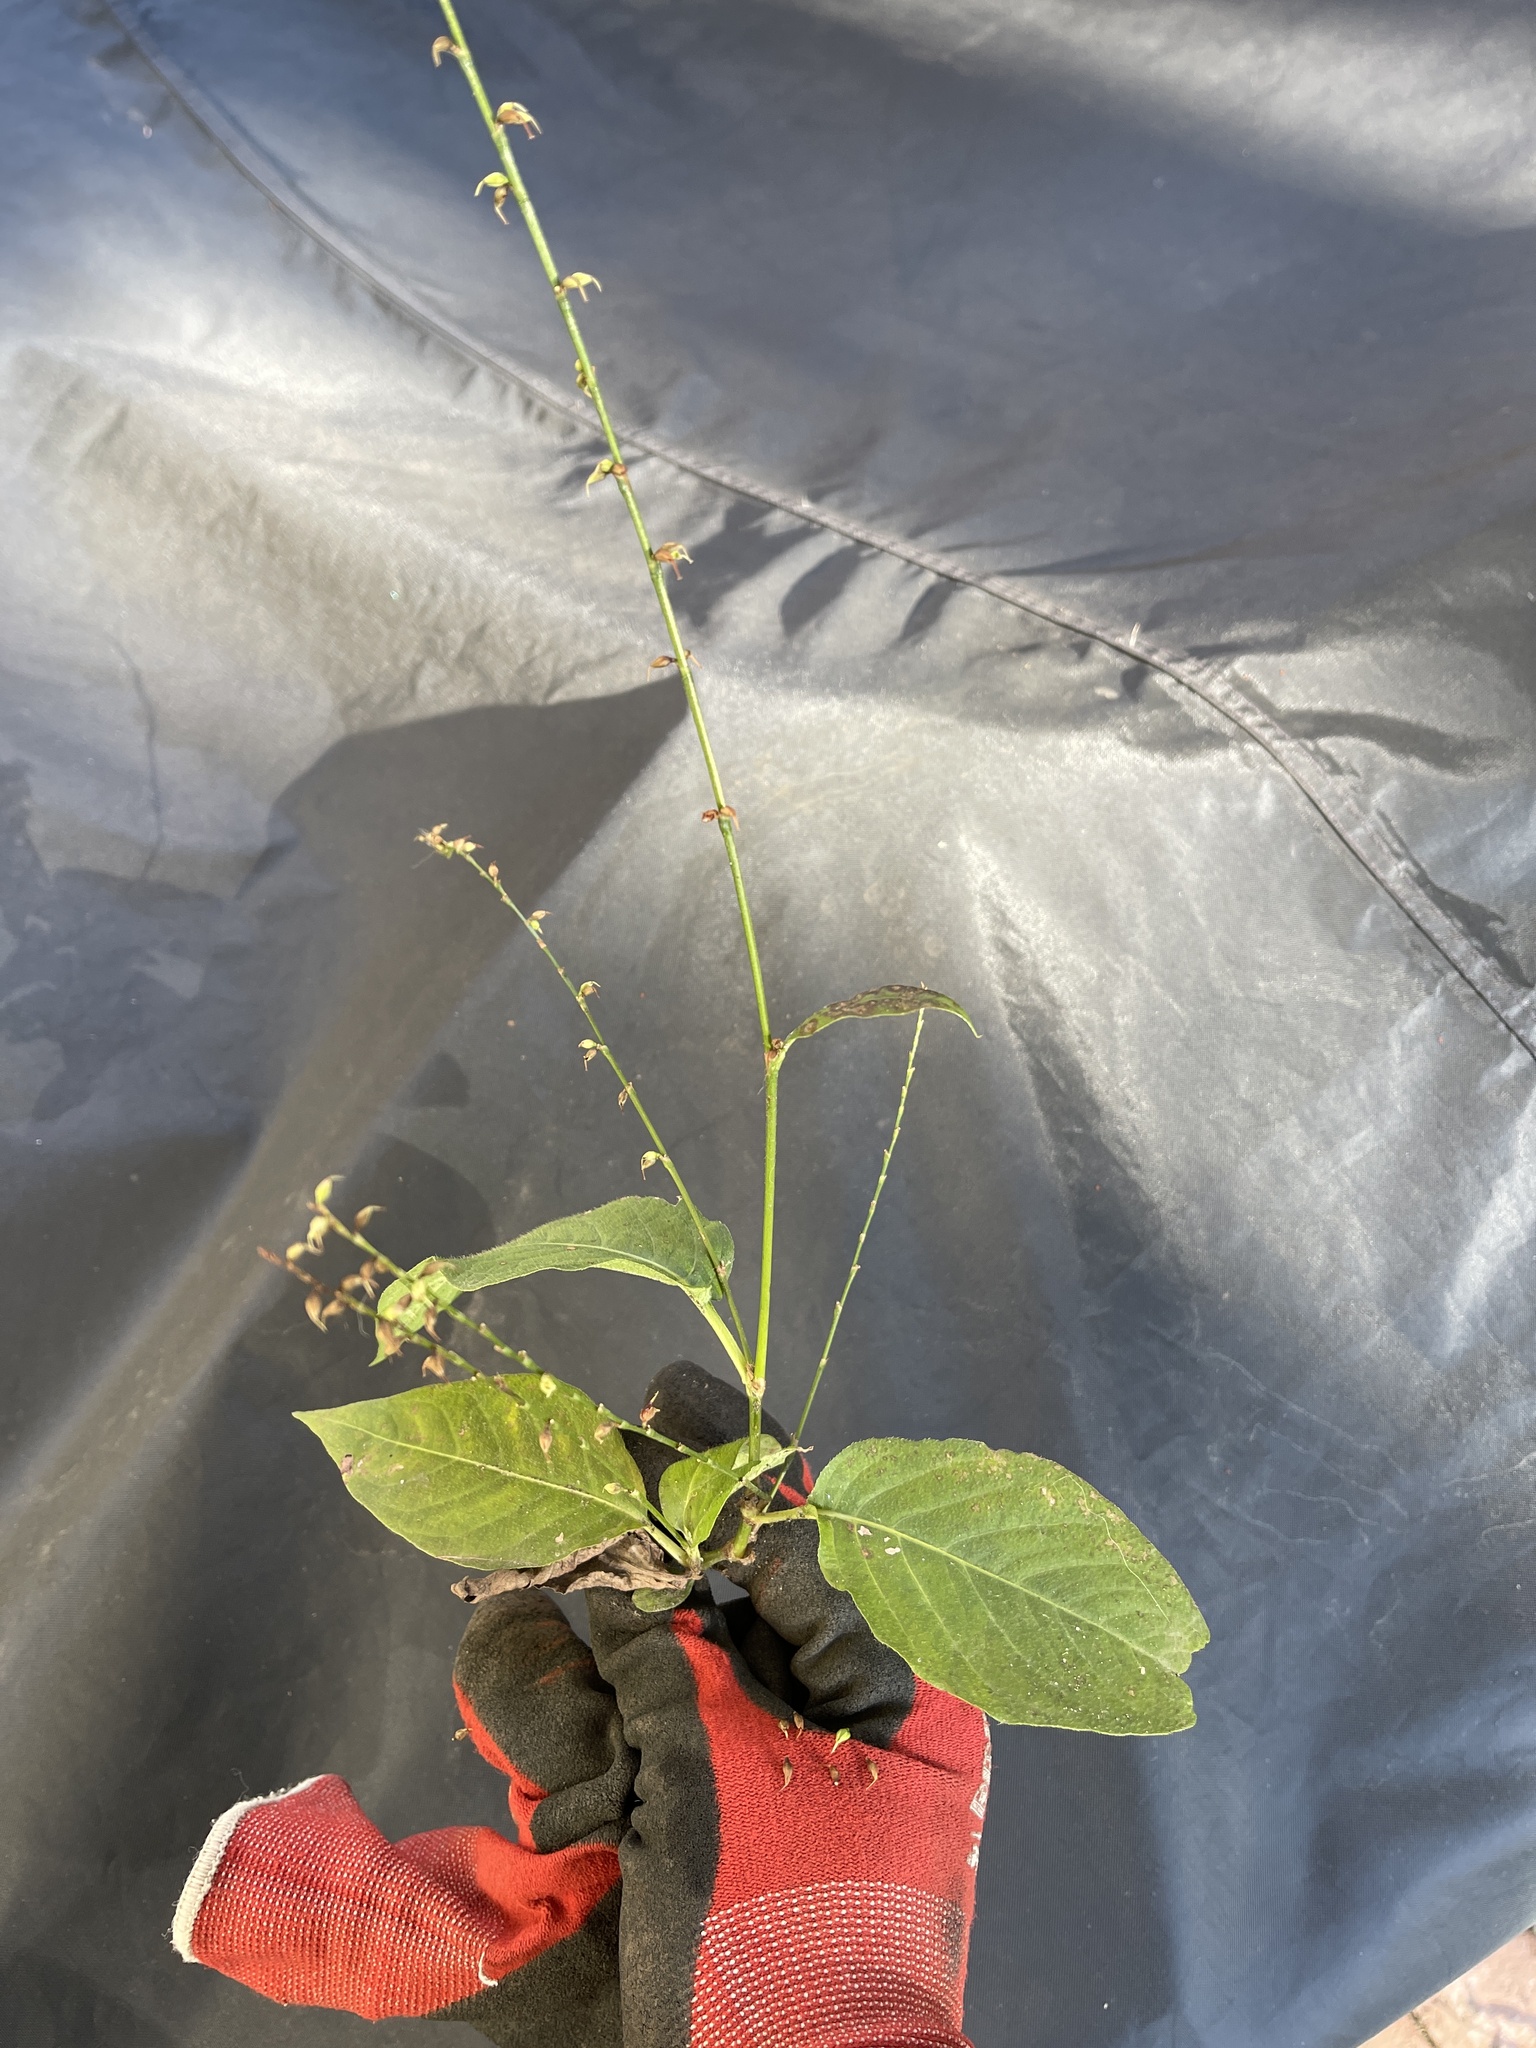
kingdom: Plantae
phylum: Tracheophyta
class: Magnoliopsida
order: Caryophyllales
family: Polygonaceae
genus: Persicaria
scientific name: Persicaria virginiana
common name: Jumpseed
